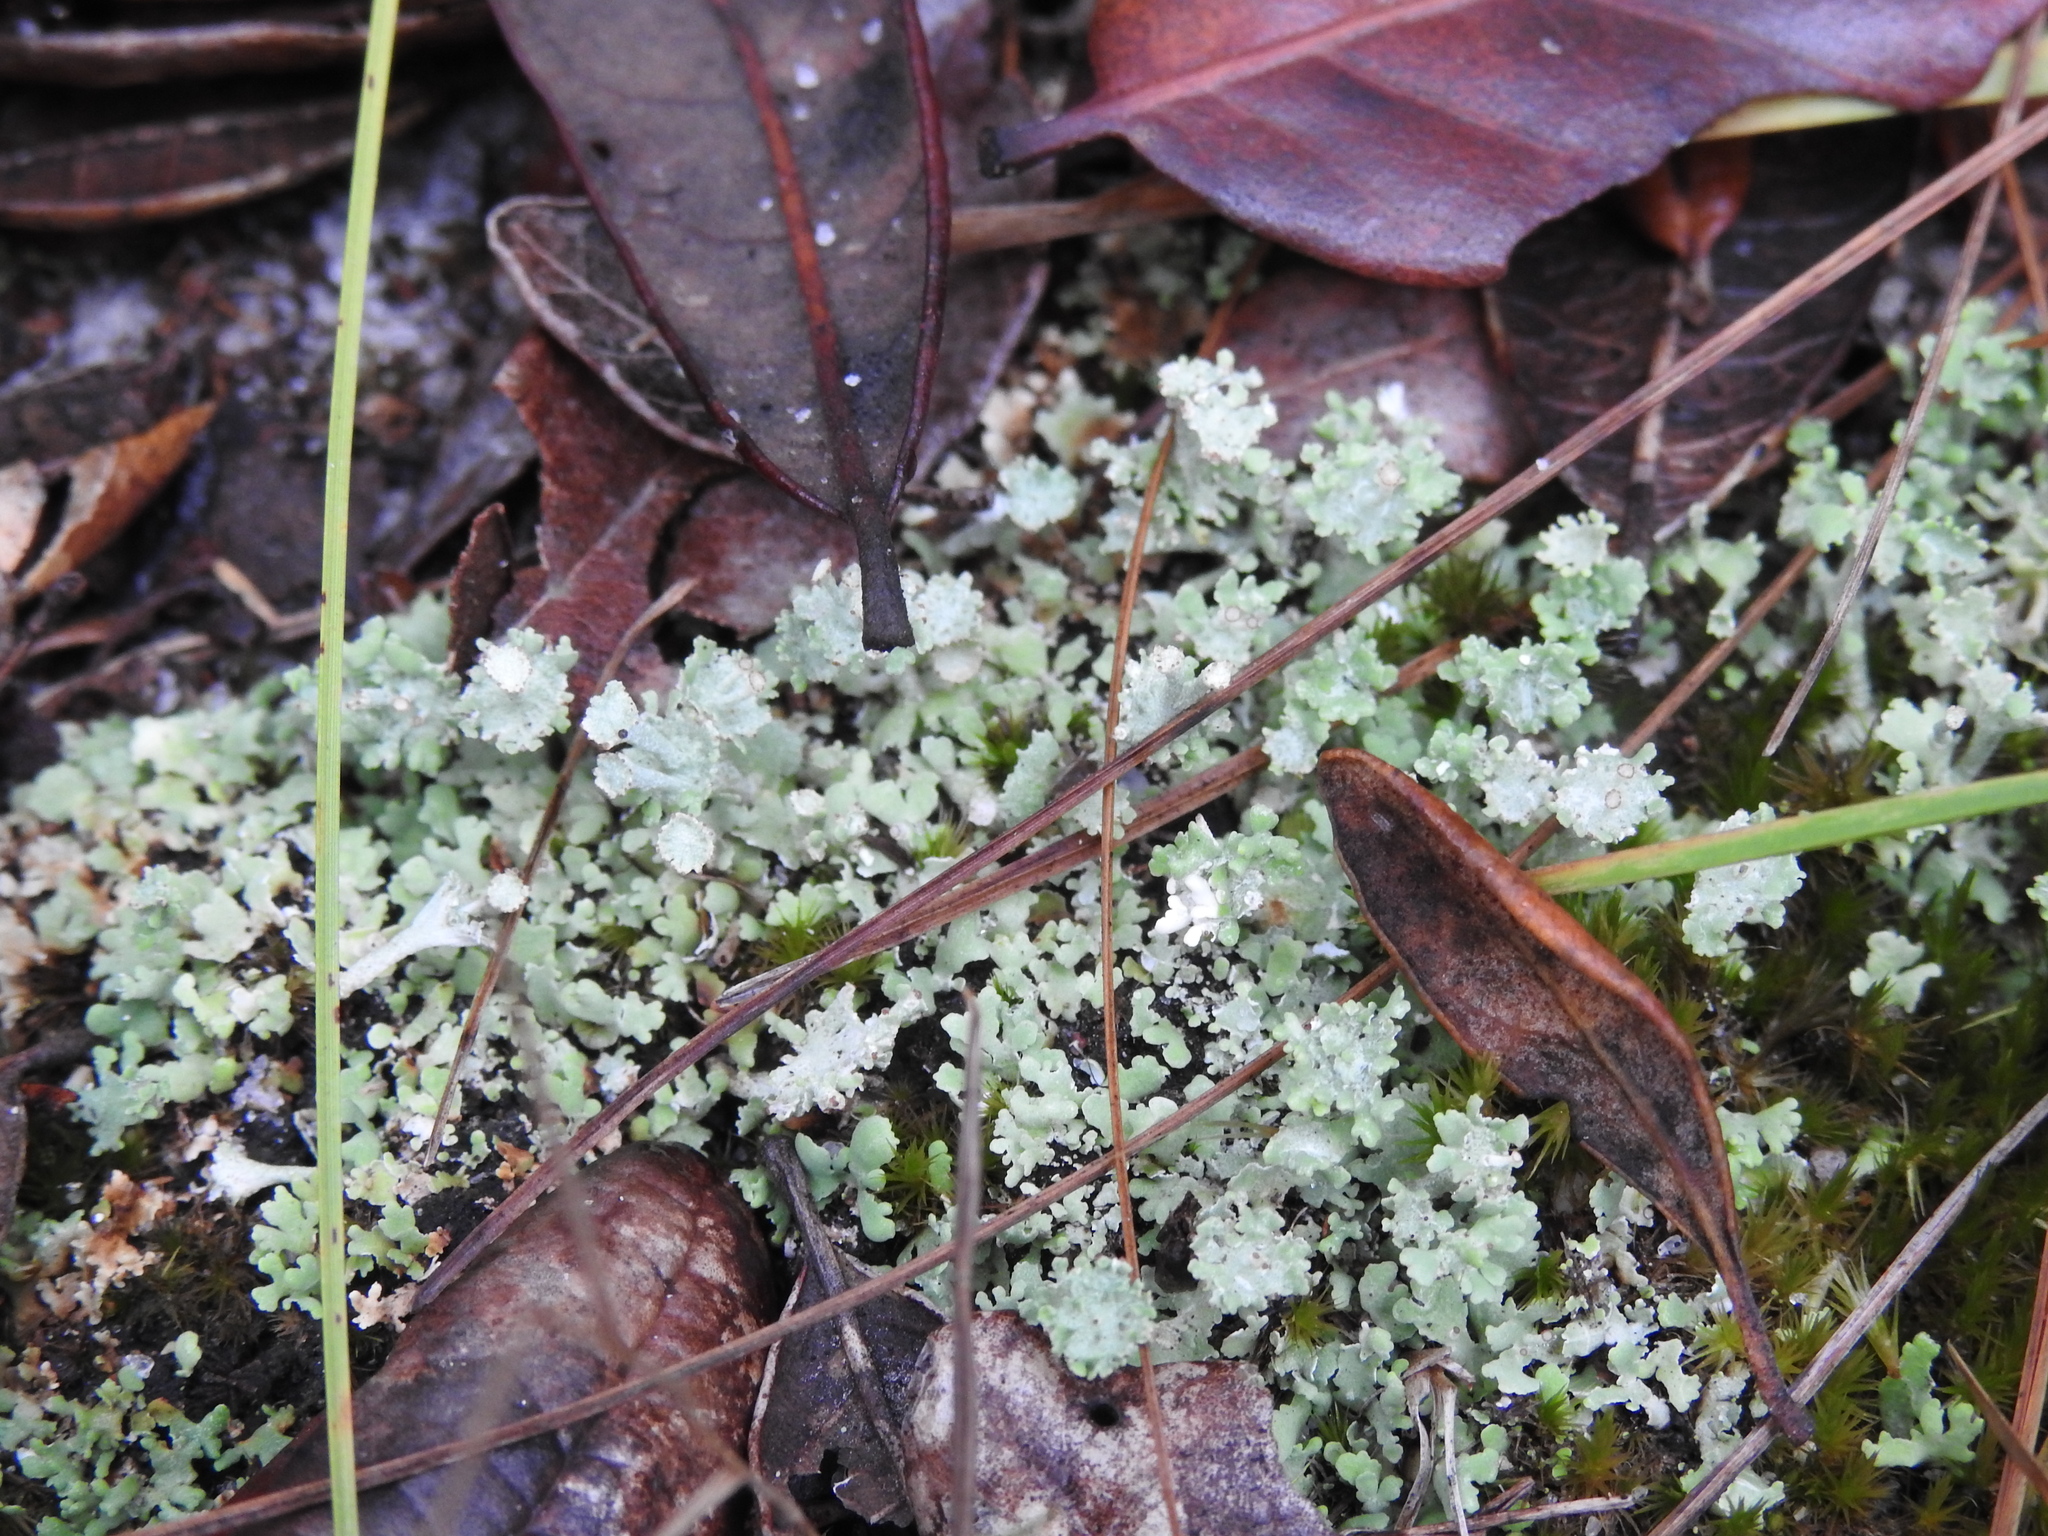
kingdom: Fungi
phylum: Ascomycota
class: Lecanoromycetes
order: Lecanorales
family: Cladoniaceae
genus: Cladonia
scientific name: Cladonia rappii
